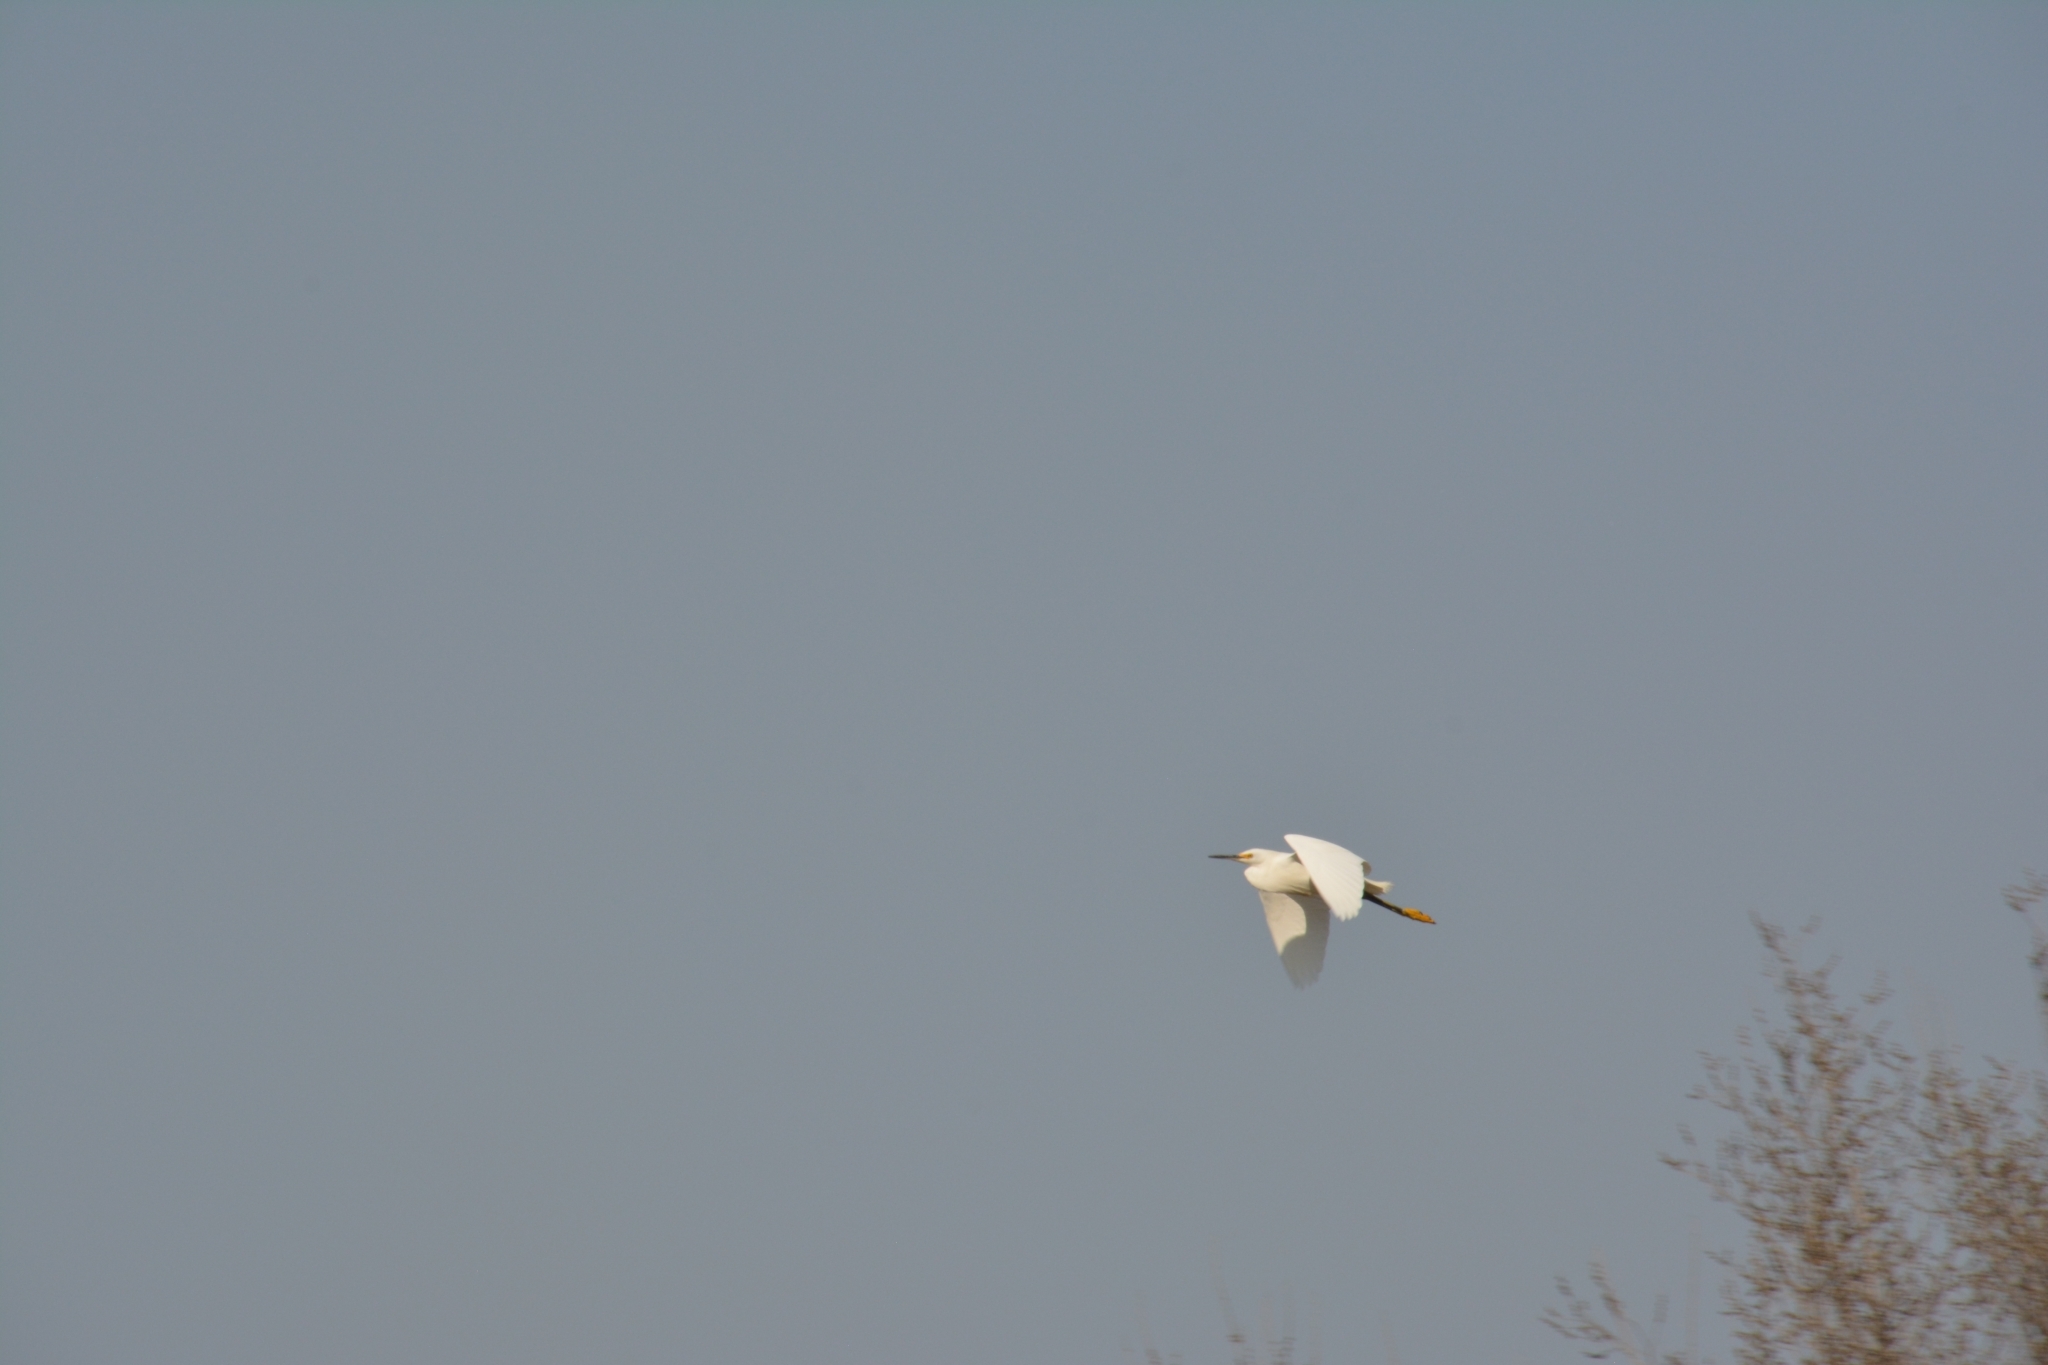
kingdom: Animalia
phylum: Chordata
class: Aves
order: Pelecaniformes
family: Ardeidae
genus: Egretta
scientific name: Egretta thula
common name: Snowy egret
